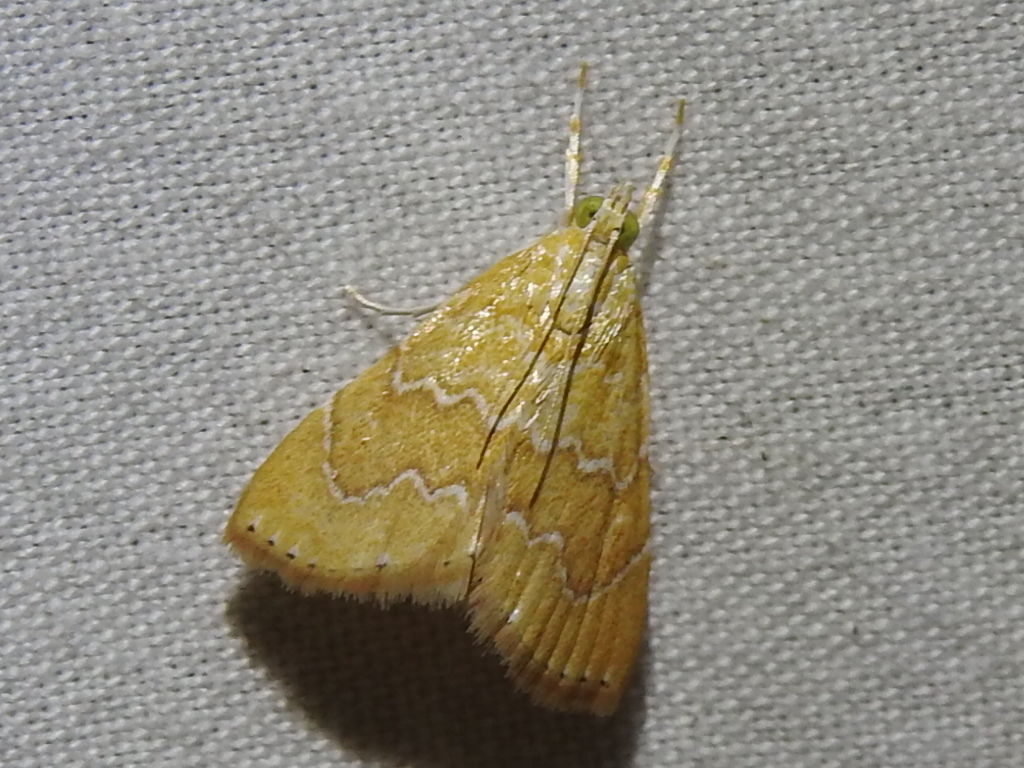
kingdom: Animalia
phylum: Arthropoda
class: Insecta
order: Lepidoptera
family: Crambidae
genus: Glaphyria
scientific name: Glaphyria sesquistrialis
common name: White-roped glaphyria
